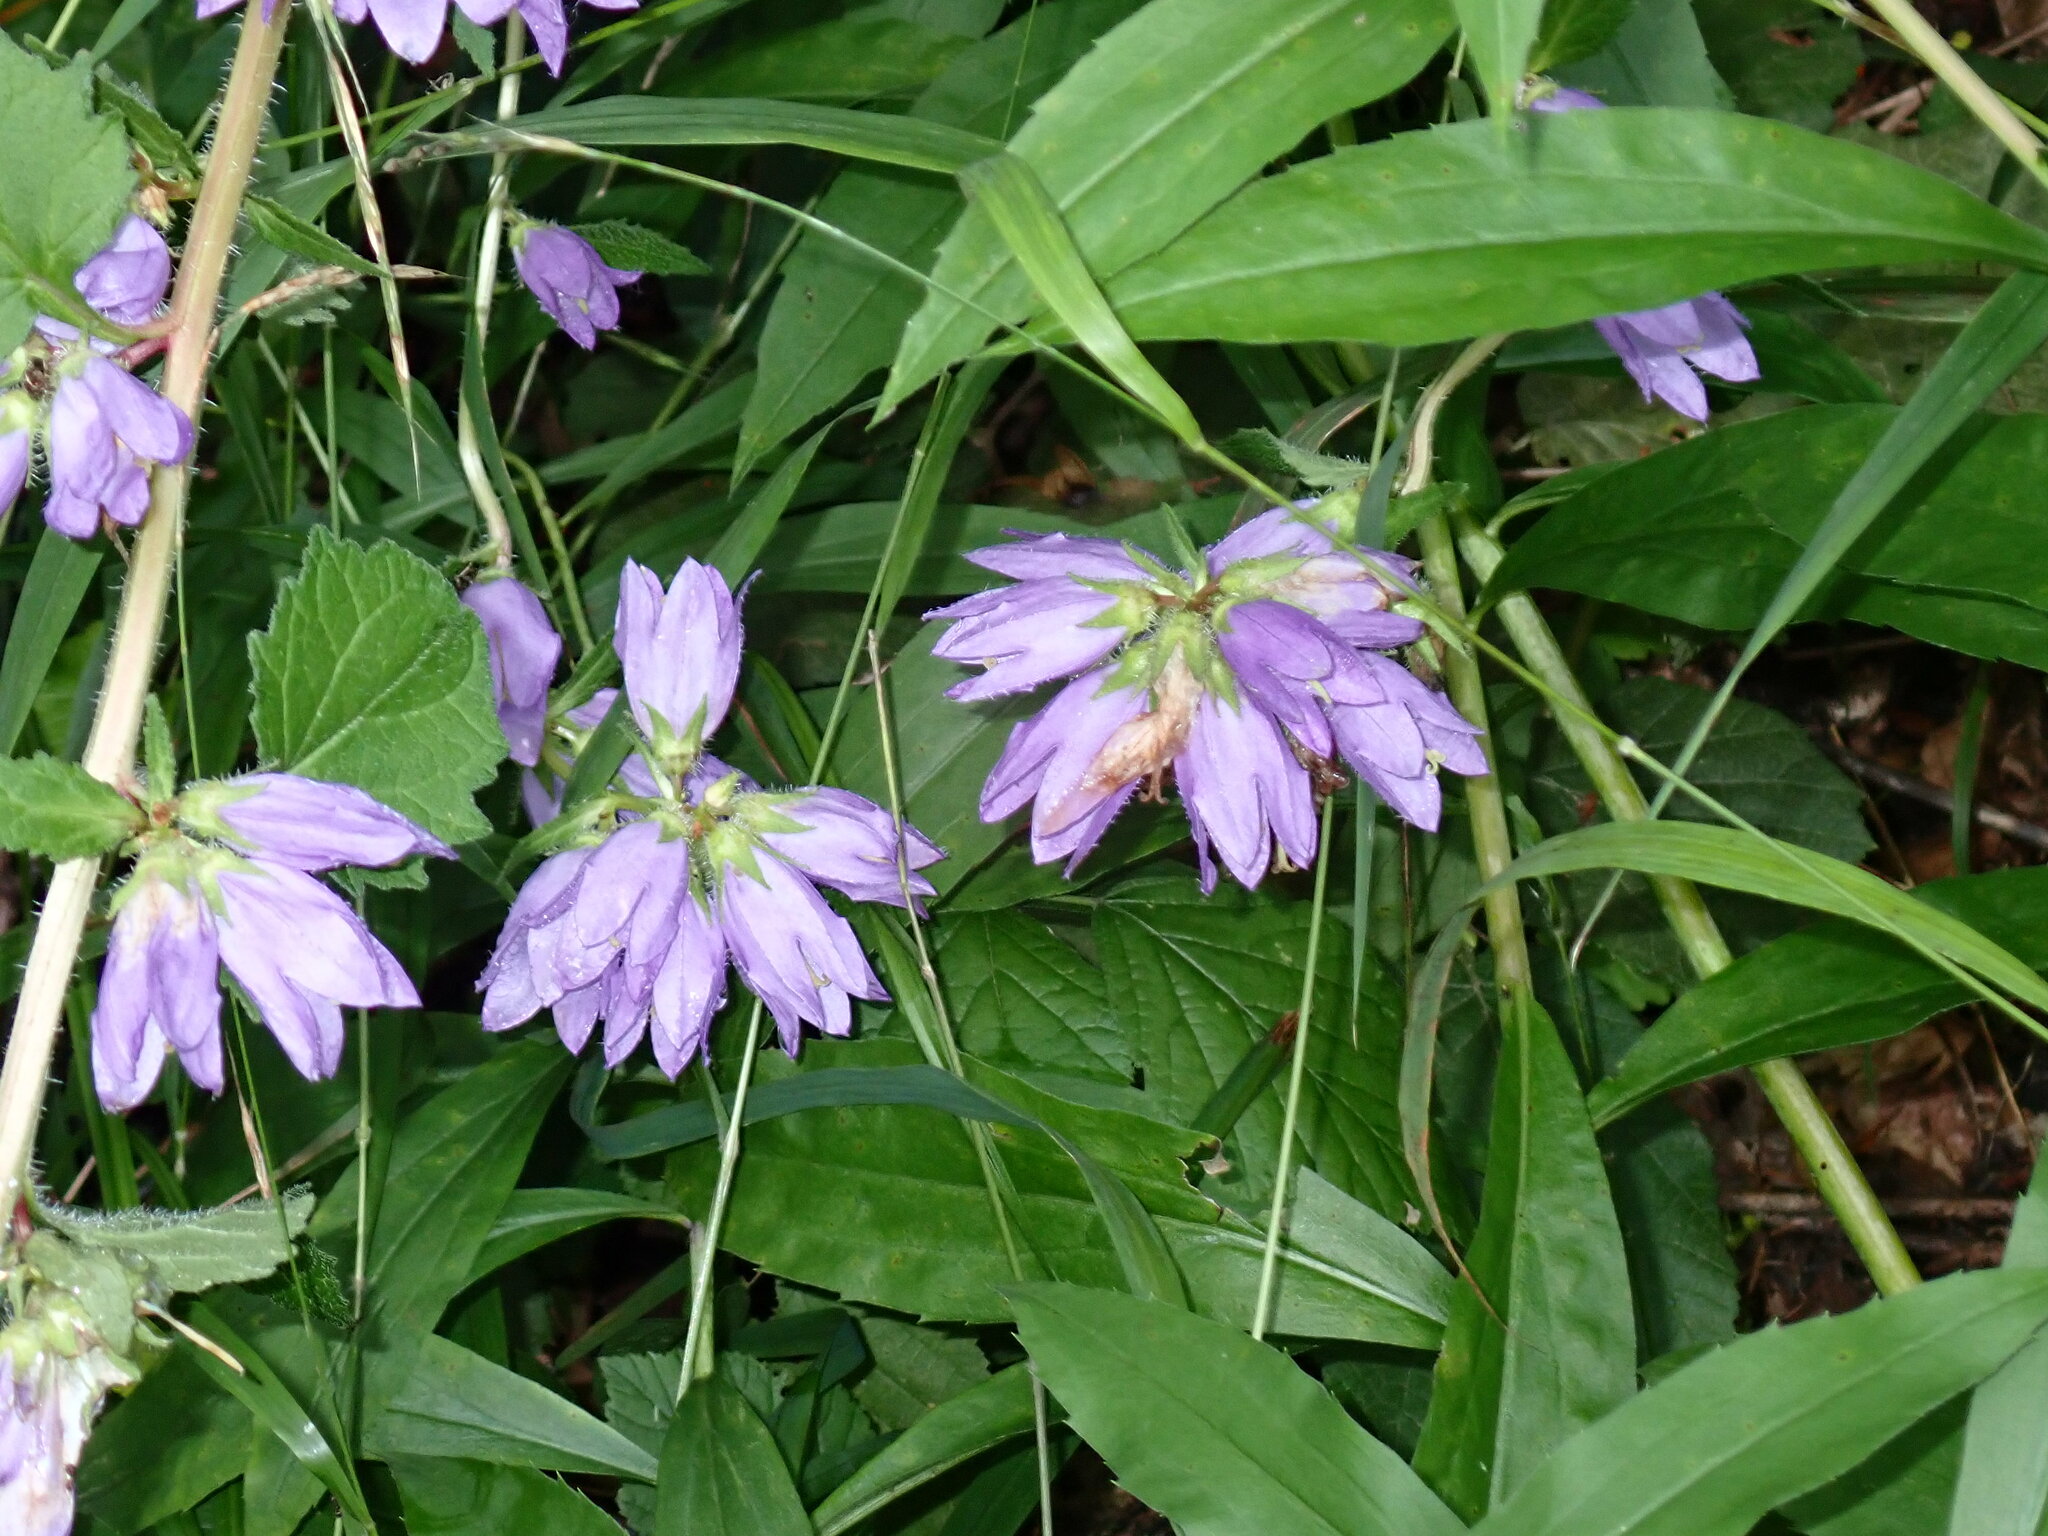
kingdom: Plantae
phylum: Tracheophyta
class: Magnoliopsida
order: Asterales
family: Campanulaceae
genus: Campanula
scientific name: Campanula trachelium
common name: Nettle-leaved bellflower
